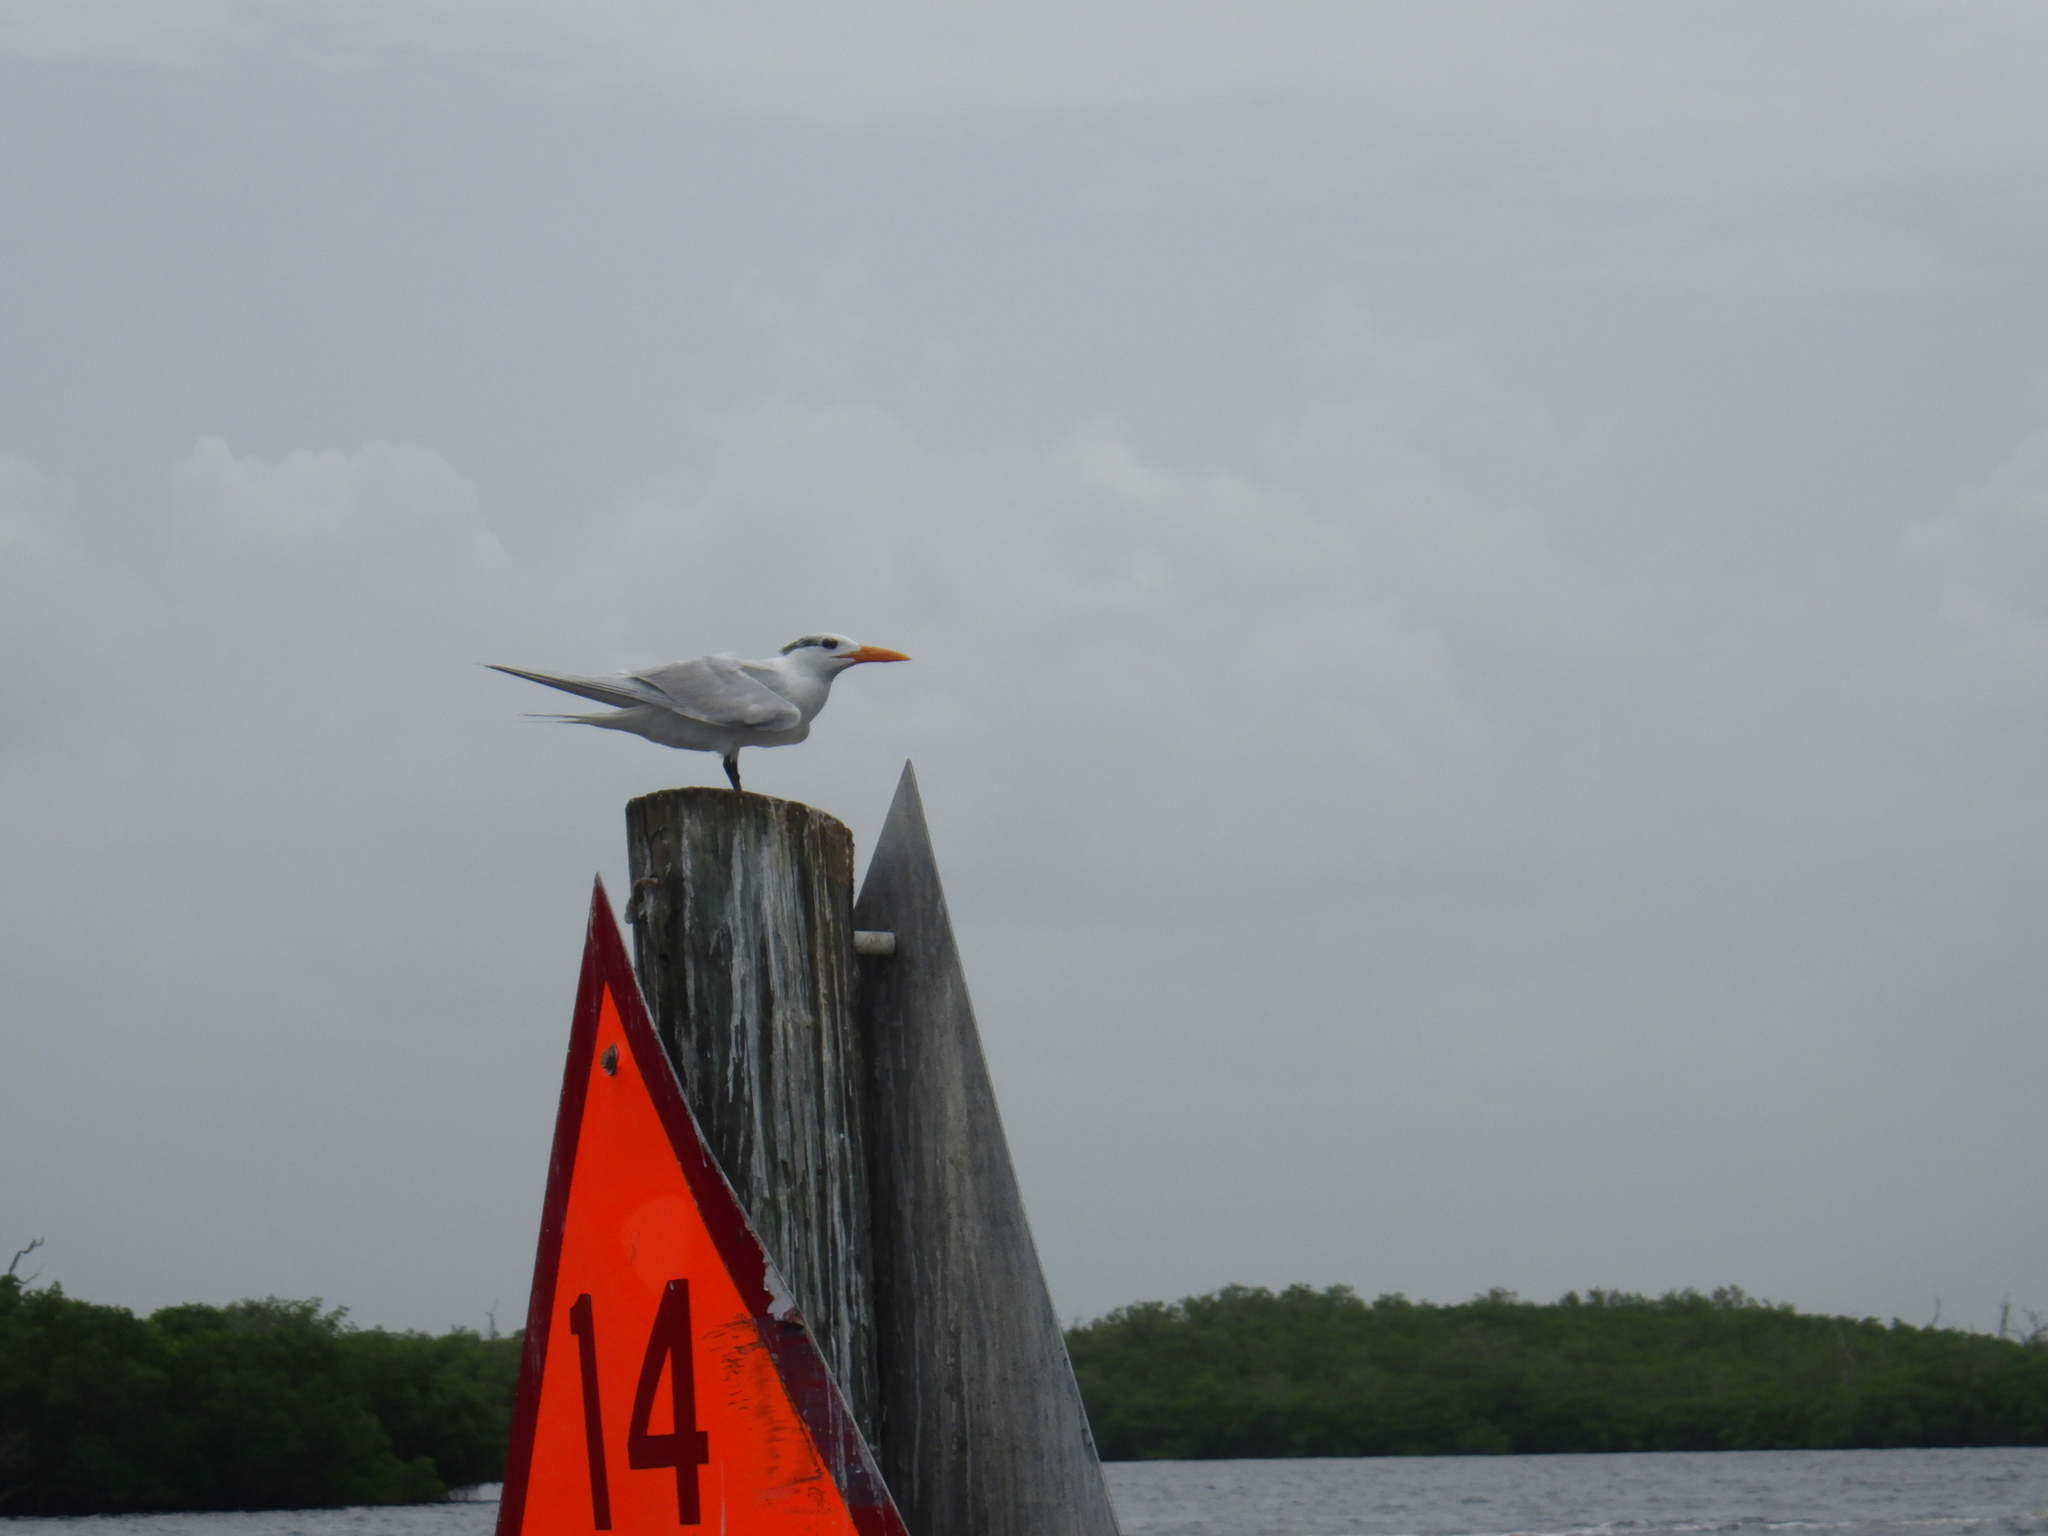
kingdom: Animalia
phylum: Chordata
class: Aves
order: Charadriiformes
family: Laridae
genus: Thalasseus
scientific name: Thalasseus maximus
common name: Royal tern
